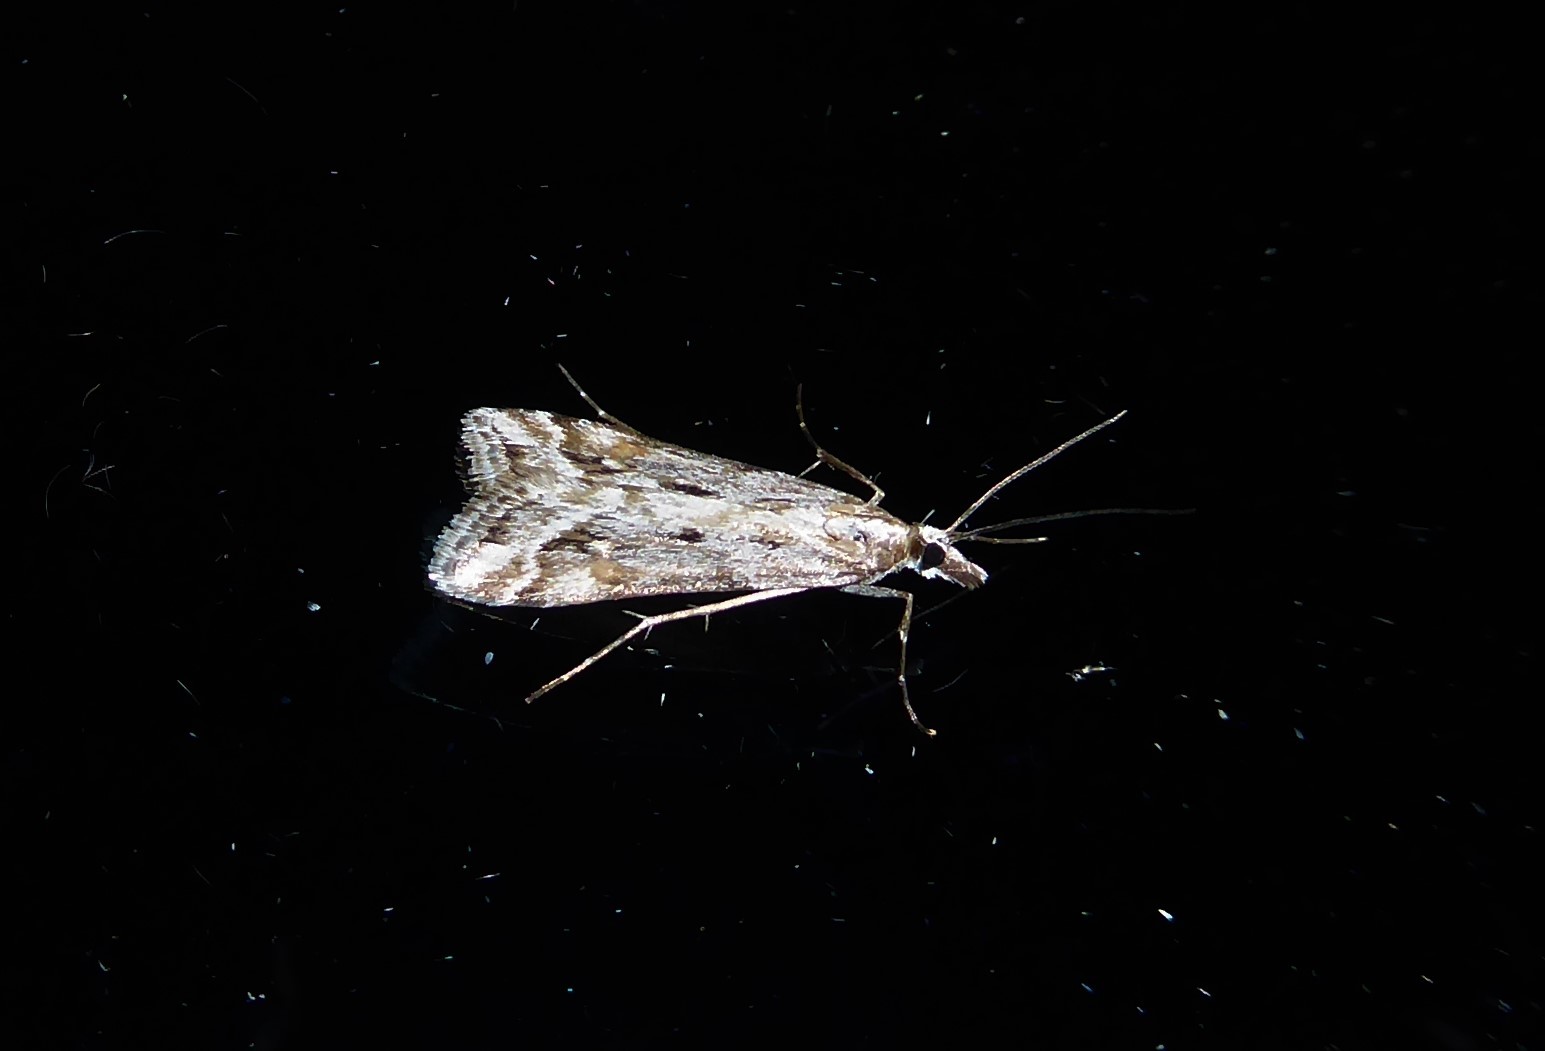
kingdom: Animalia
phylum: Arthropoda
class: Insecta
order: Lepidoptera
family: Crambidae
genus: Scoparia
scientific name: Scoparia exilis
